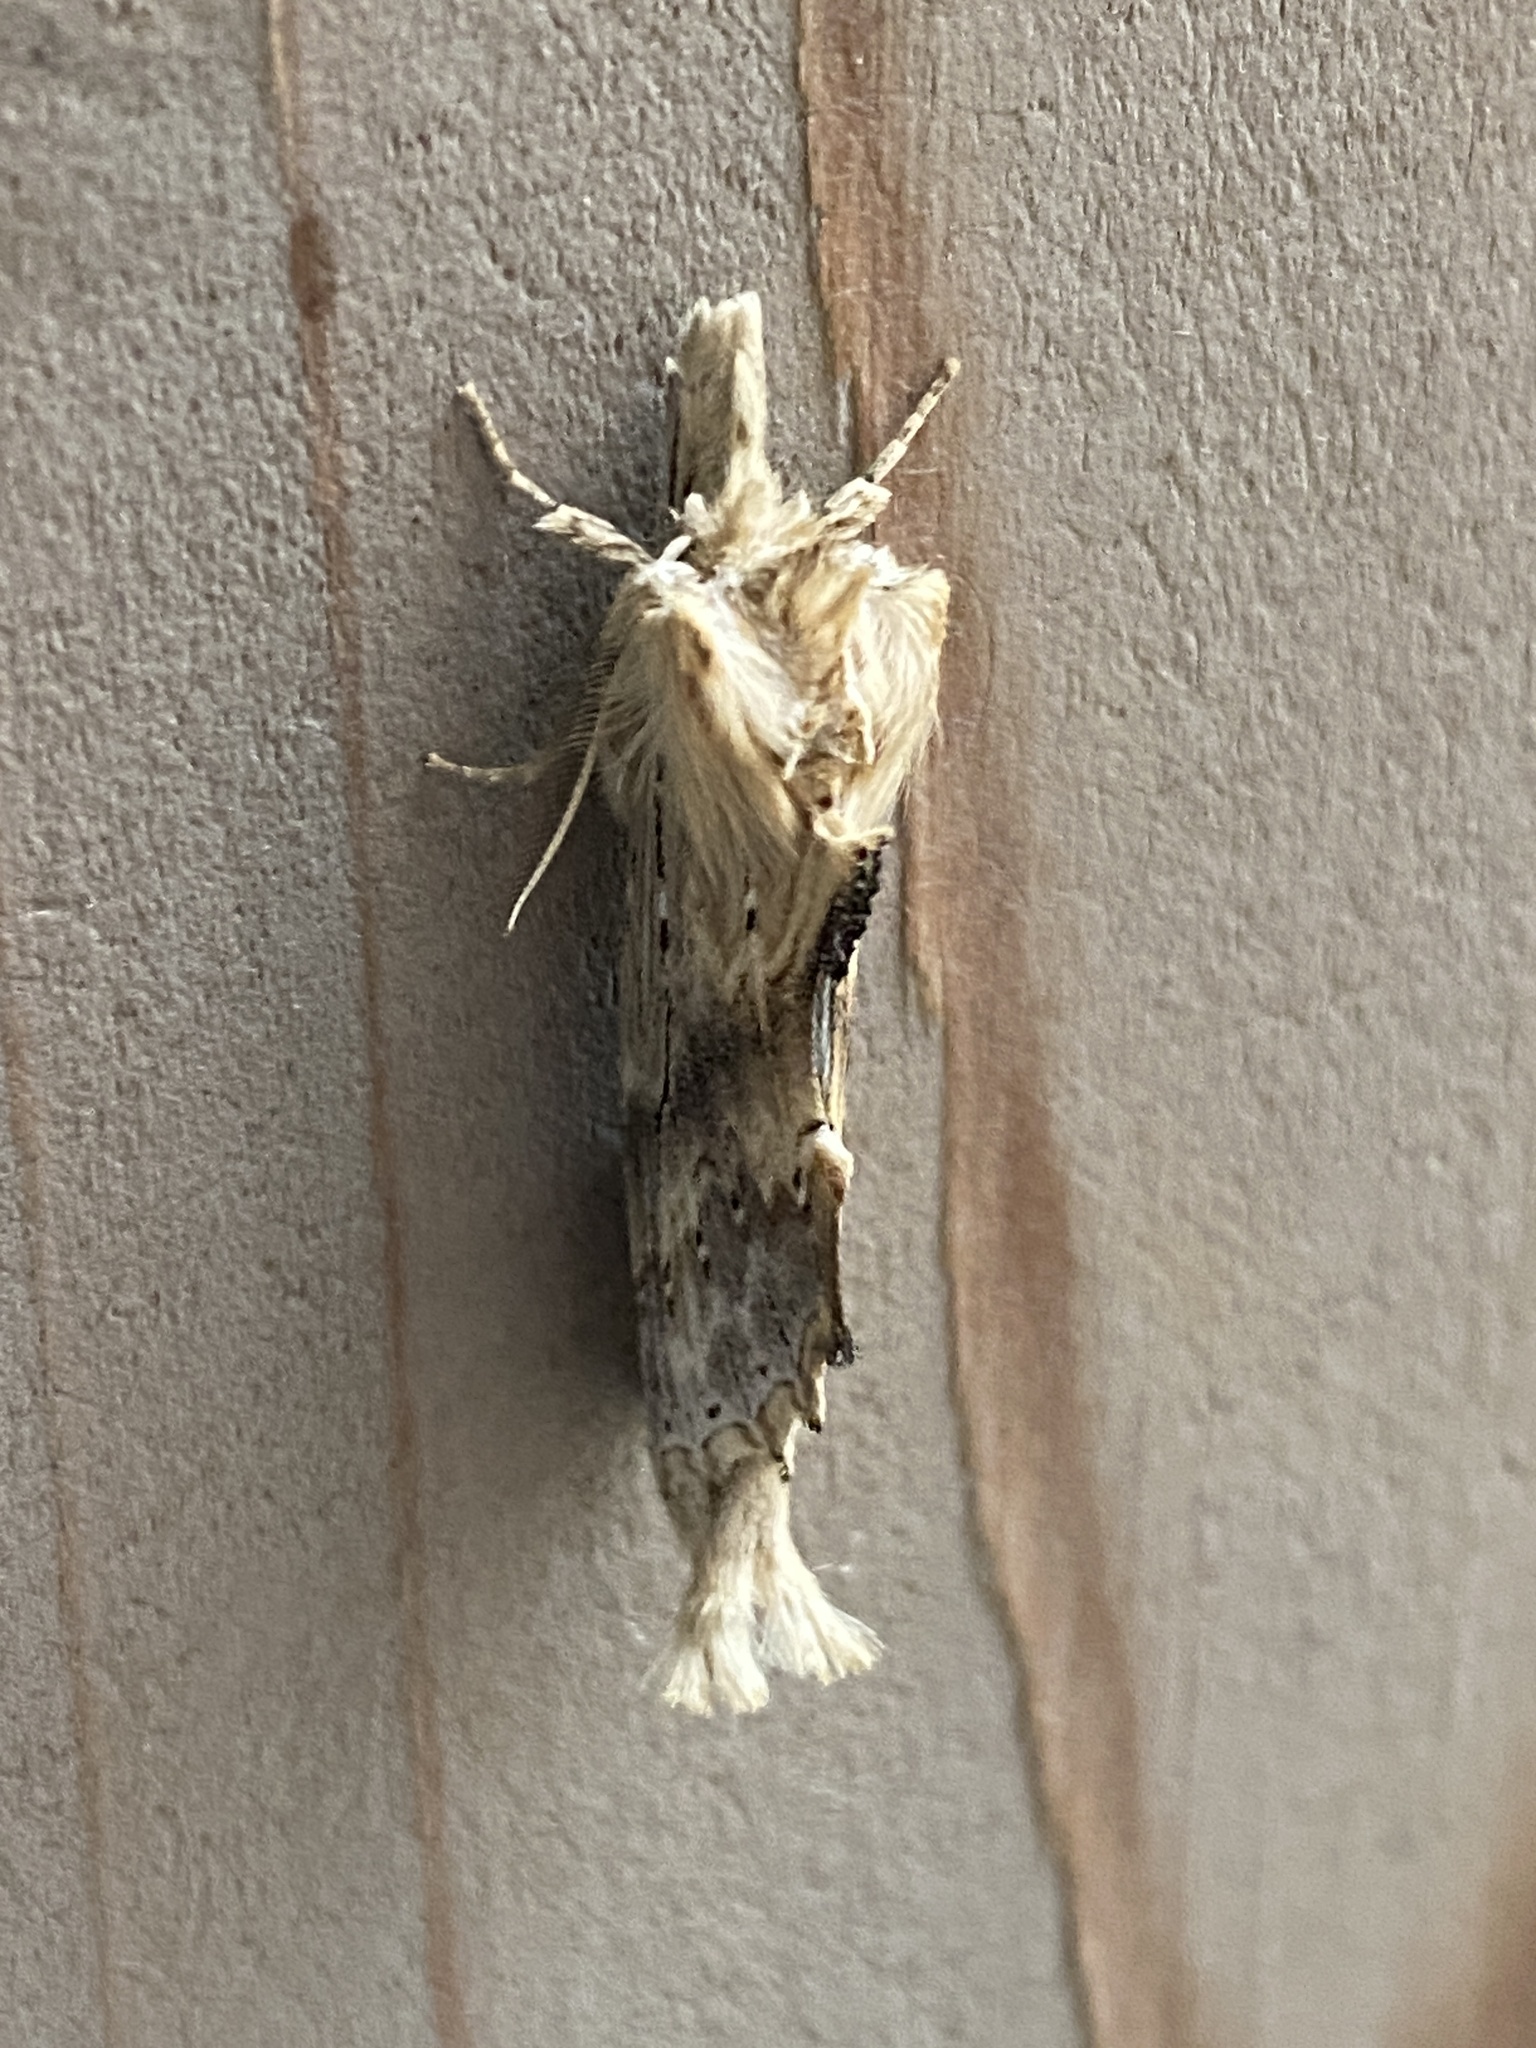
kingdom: Animalia
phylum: Arthropoda
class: Insecta
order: Lepidoptera
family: Notodontidae
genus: Pterostoma
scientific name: Pterostoma palpina
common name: Pale prominent
